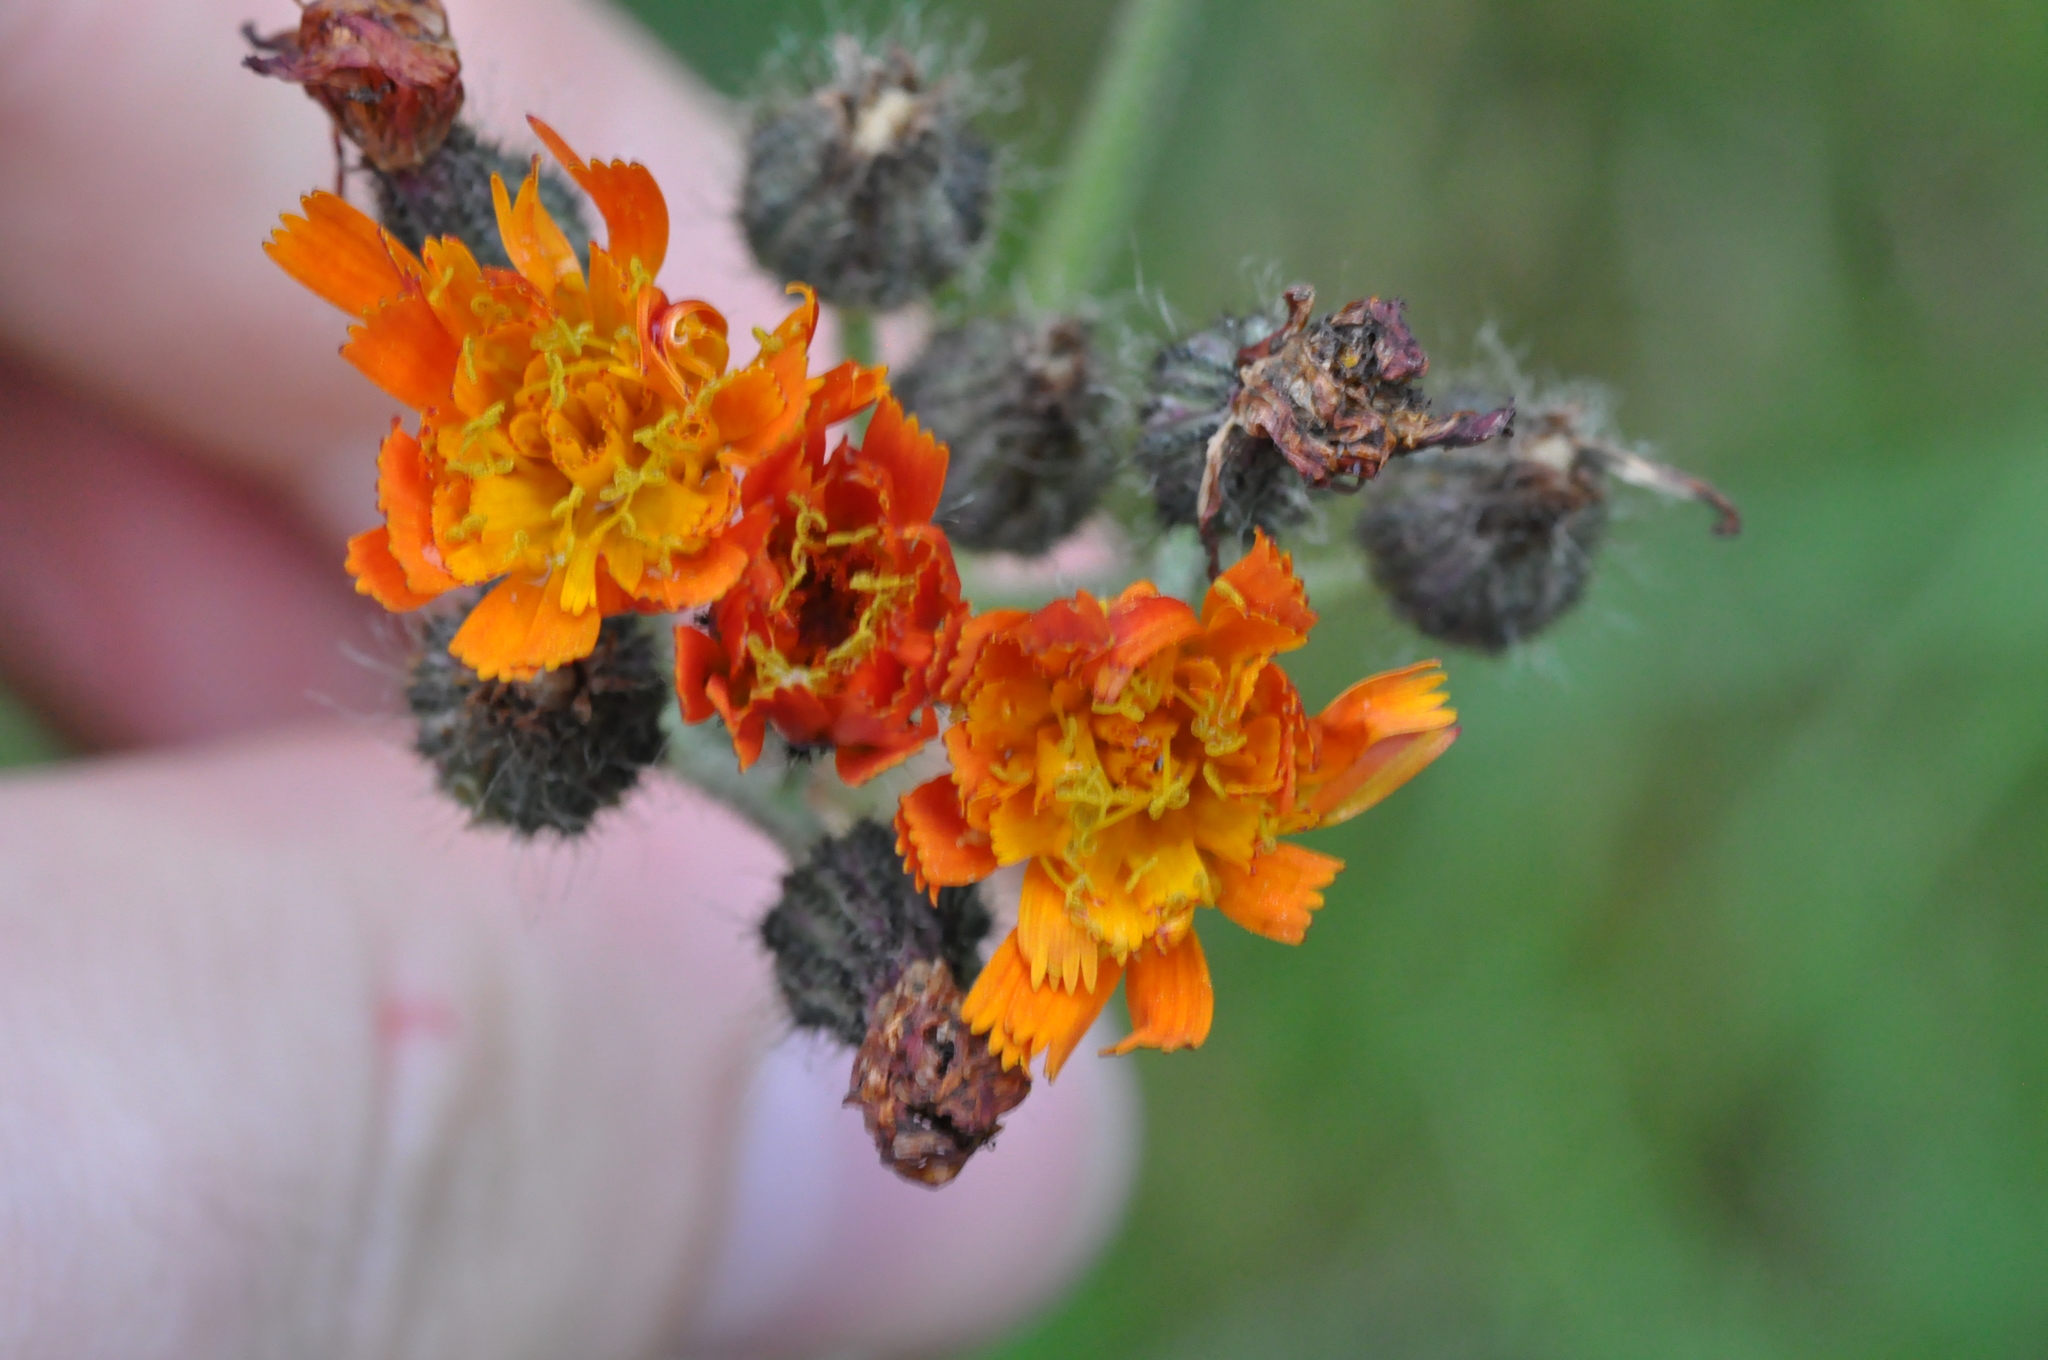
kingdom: Plantae
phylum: Tracheophyta
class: Magnoliopsida
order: Asterales
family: Asteraceae
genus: Pilosella
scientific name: Pilosella aurantiaca
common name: Fox-and-cubs
